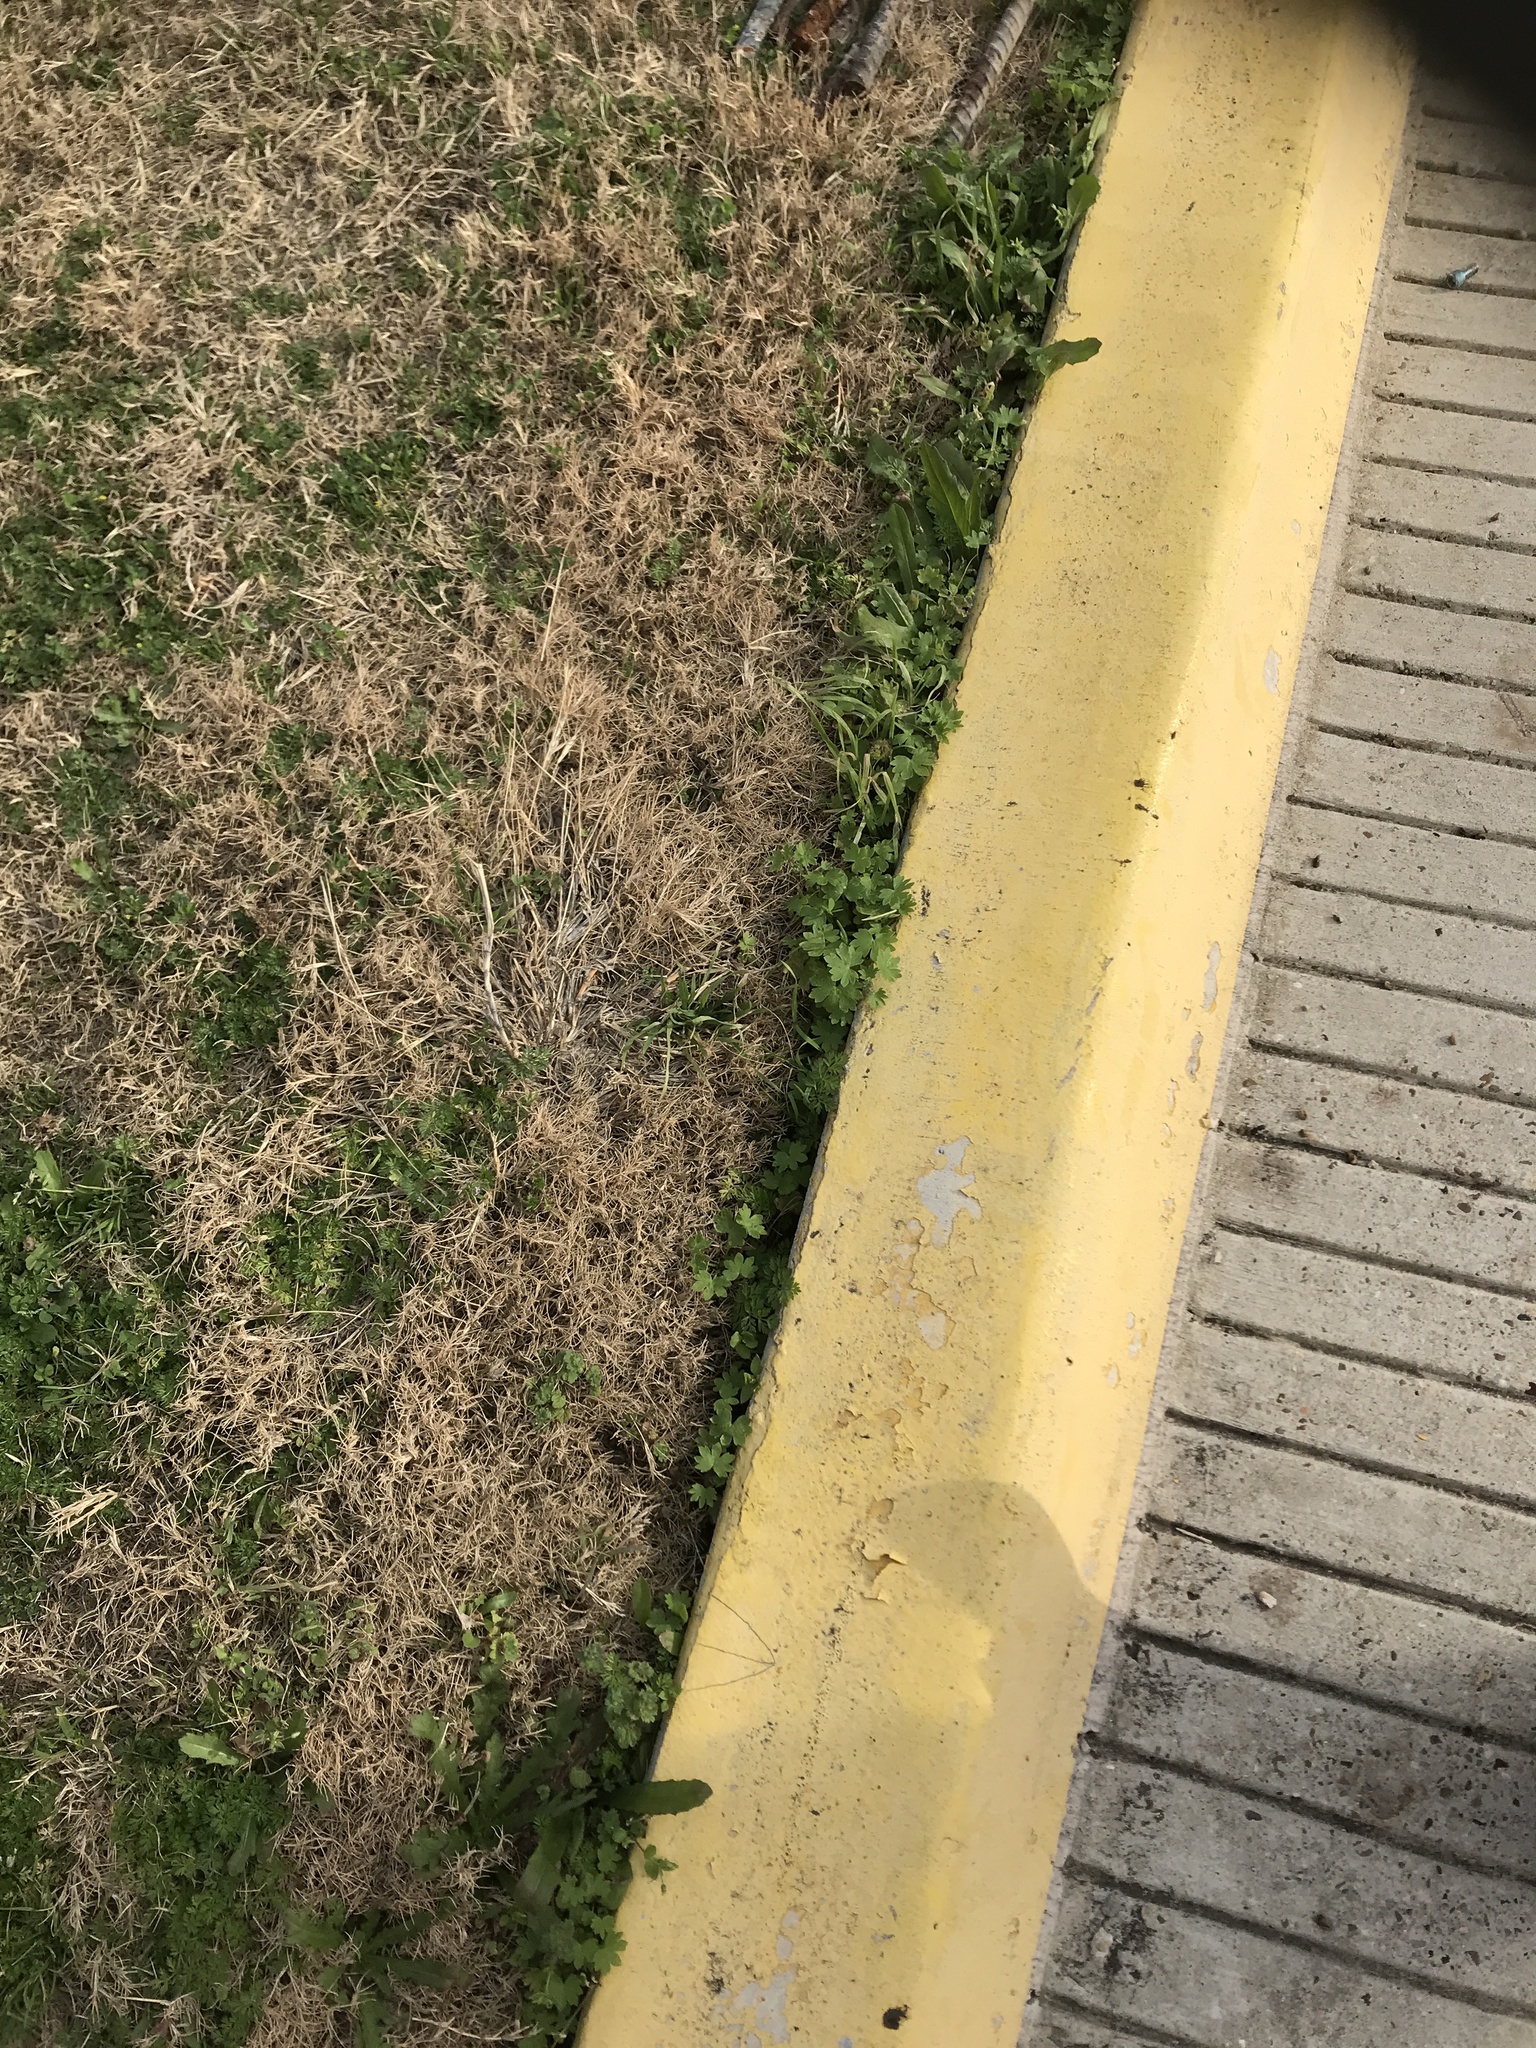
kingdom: Plantae
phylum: Tracheophyta
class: Magnoliopsida
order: Apiales
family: Apiaceae
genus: Bowlesia
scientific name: Bowlesia incana
